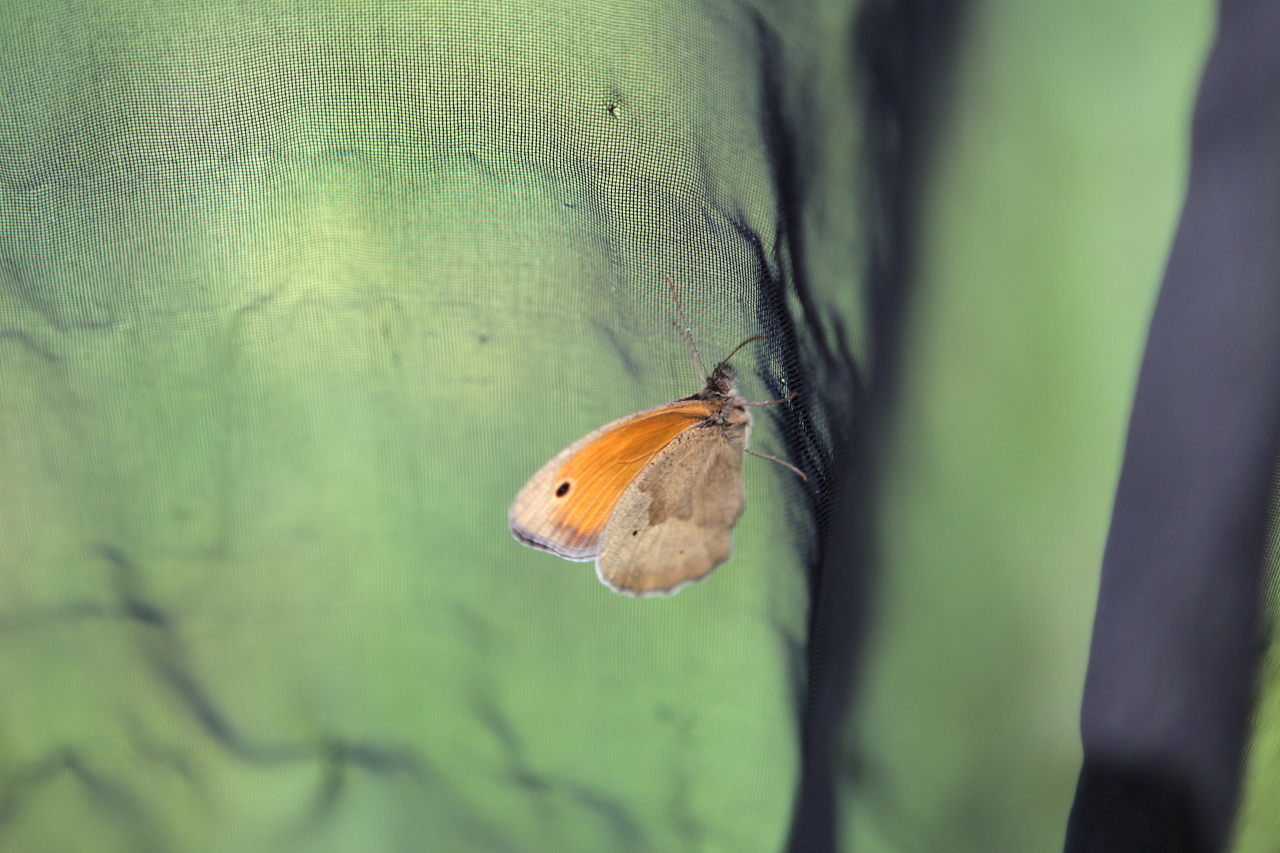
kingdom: Animalia
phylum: Arthropoda
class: Insecta
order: Lepidoptera
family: Nymphalidae
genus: Maniola
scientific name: Maniola jurtina
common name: Meadow brown
